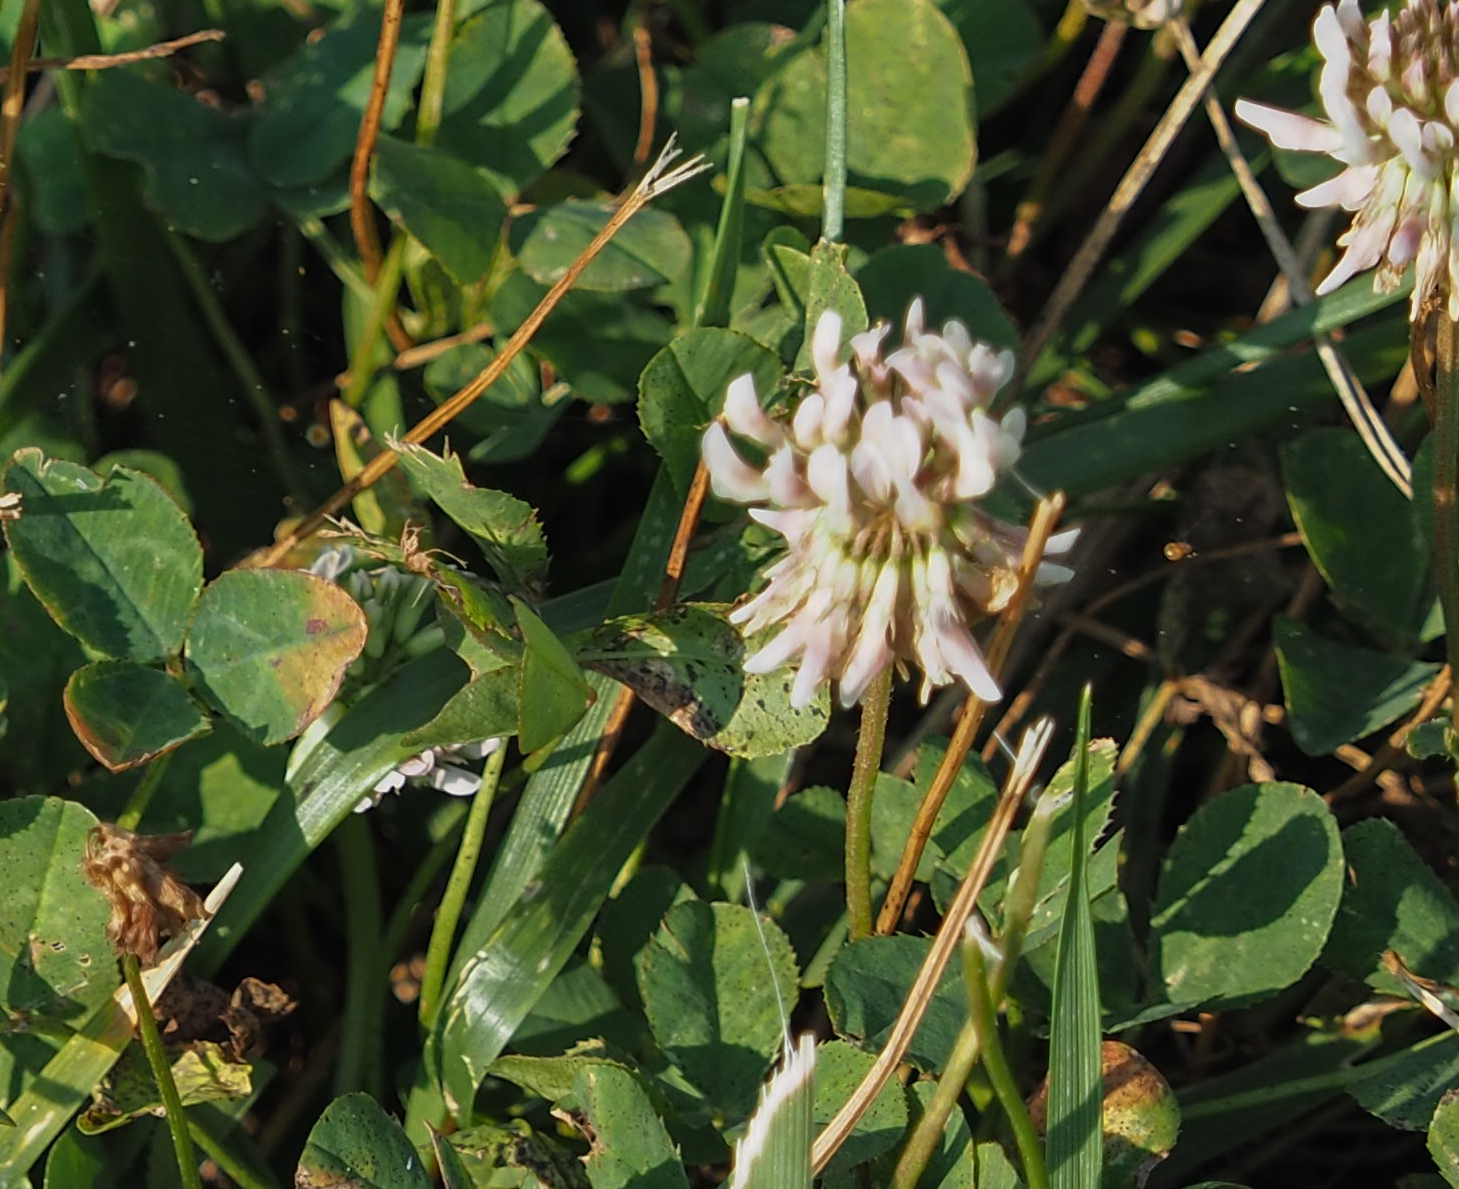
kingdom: Plantae
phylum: Tracheophyta
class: Magnoliopsida
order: Fabales
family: Fabaceae
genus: Trifolium
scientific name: Trifolium repens
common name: White clover
